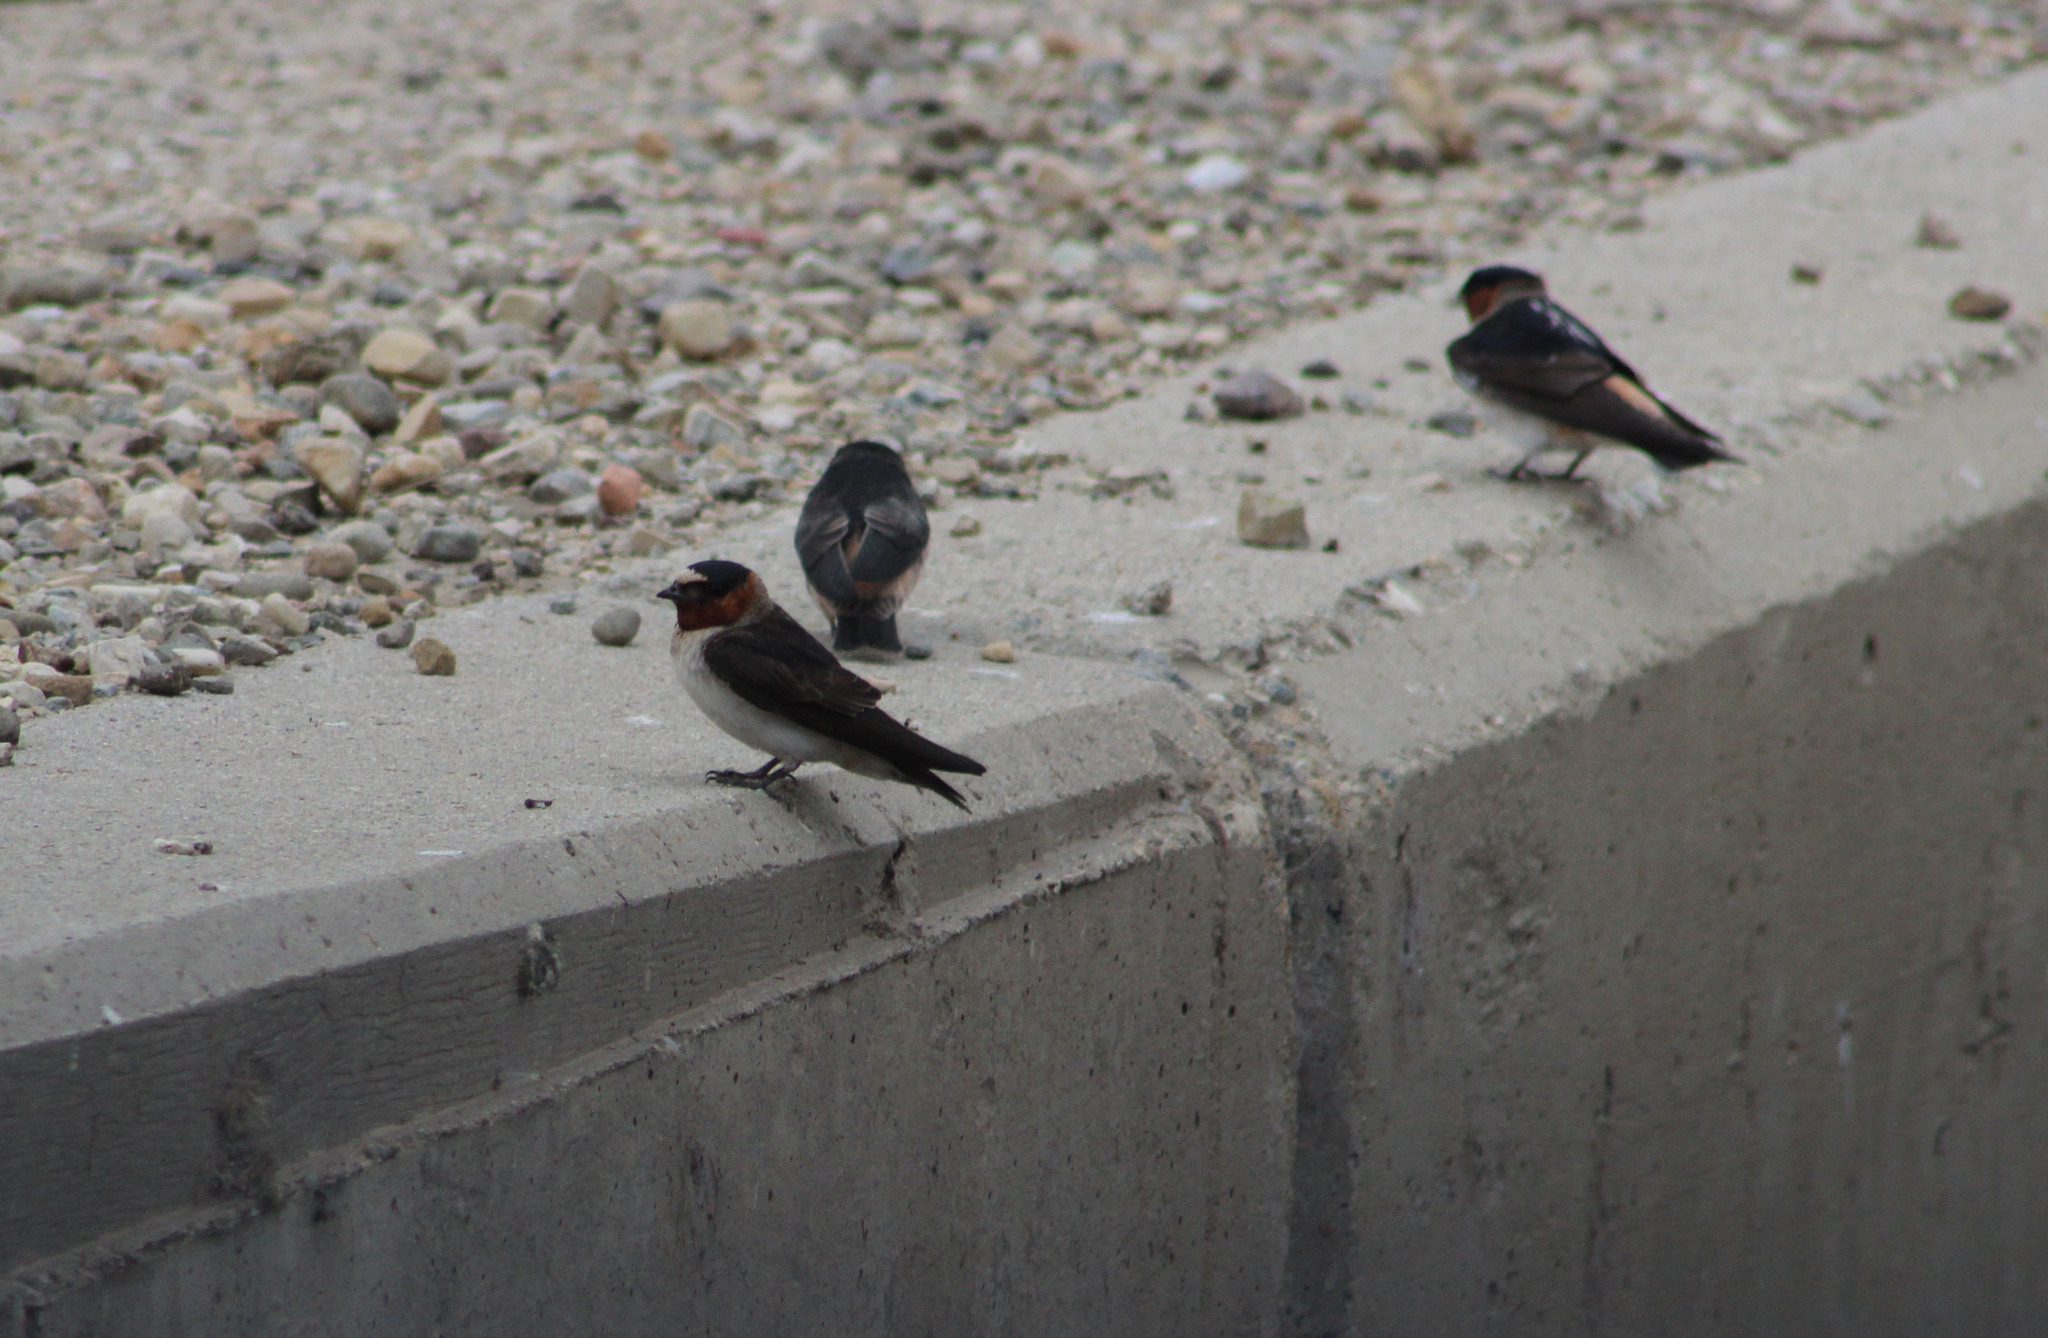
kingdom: Animalia
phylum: Chordata
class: Aves
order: Passeriformes
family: Hirundinidae
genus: Petrochelidon
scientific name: Petrochelidon pyrrhonota
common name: American cliff swallow
